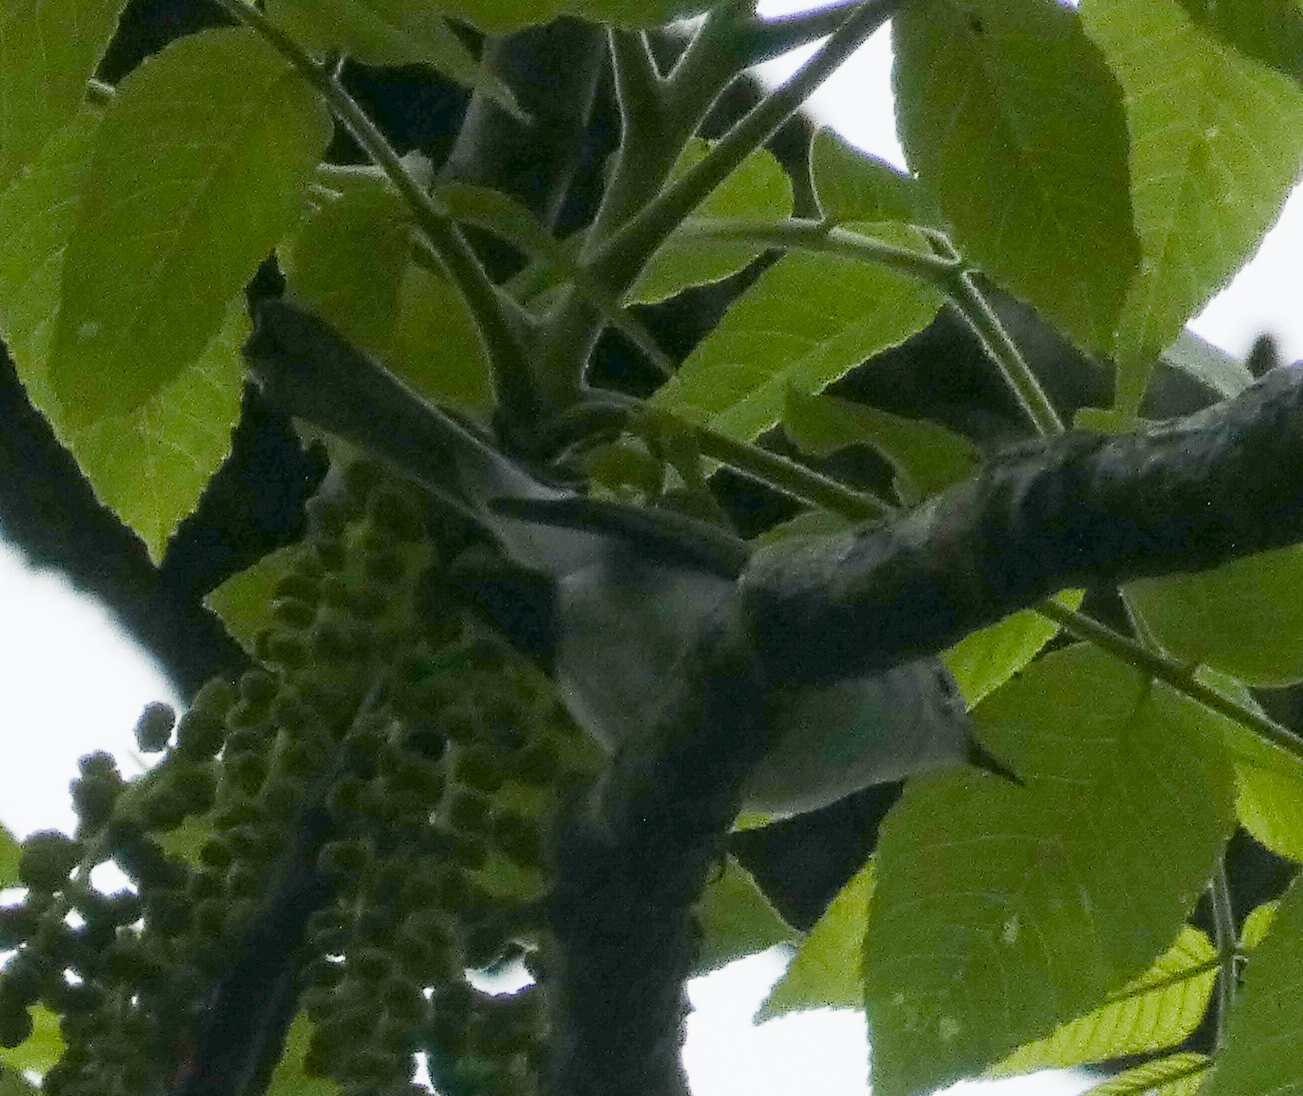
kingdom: Animalia
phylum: Chordata
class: Aves
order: Passeriformes
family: Polioptilidae
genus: Polioptila
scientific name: Polioptila caerulea
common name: Blue-gray gnatcatcher
